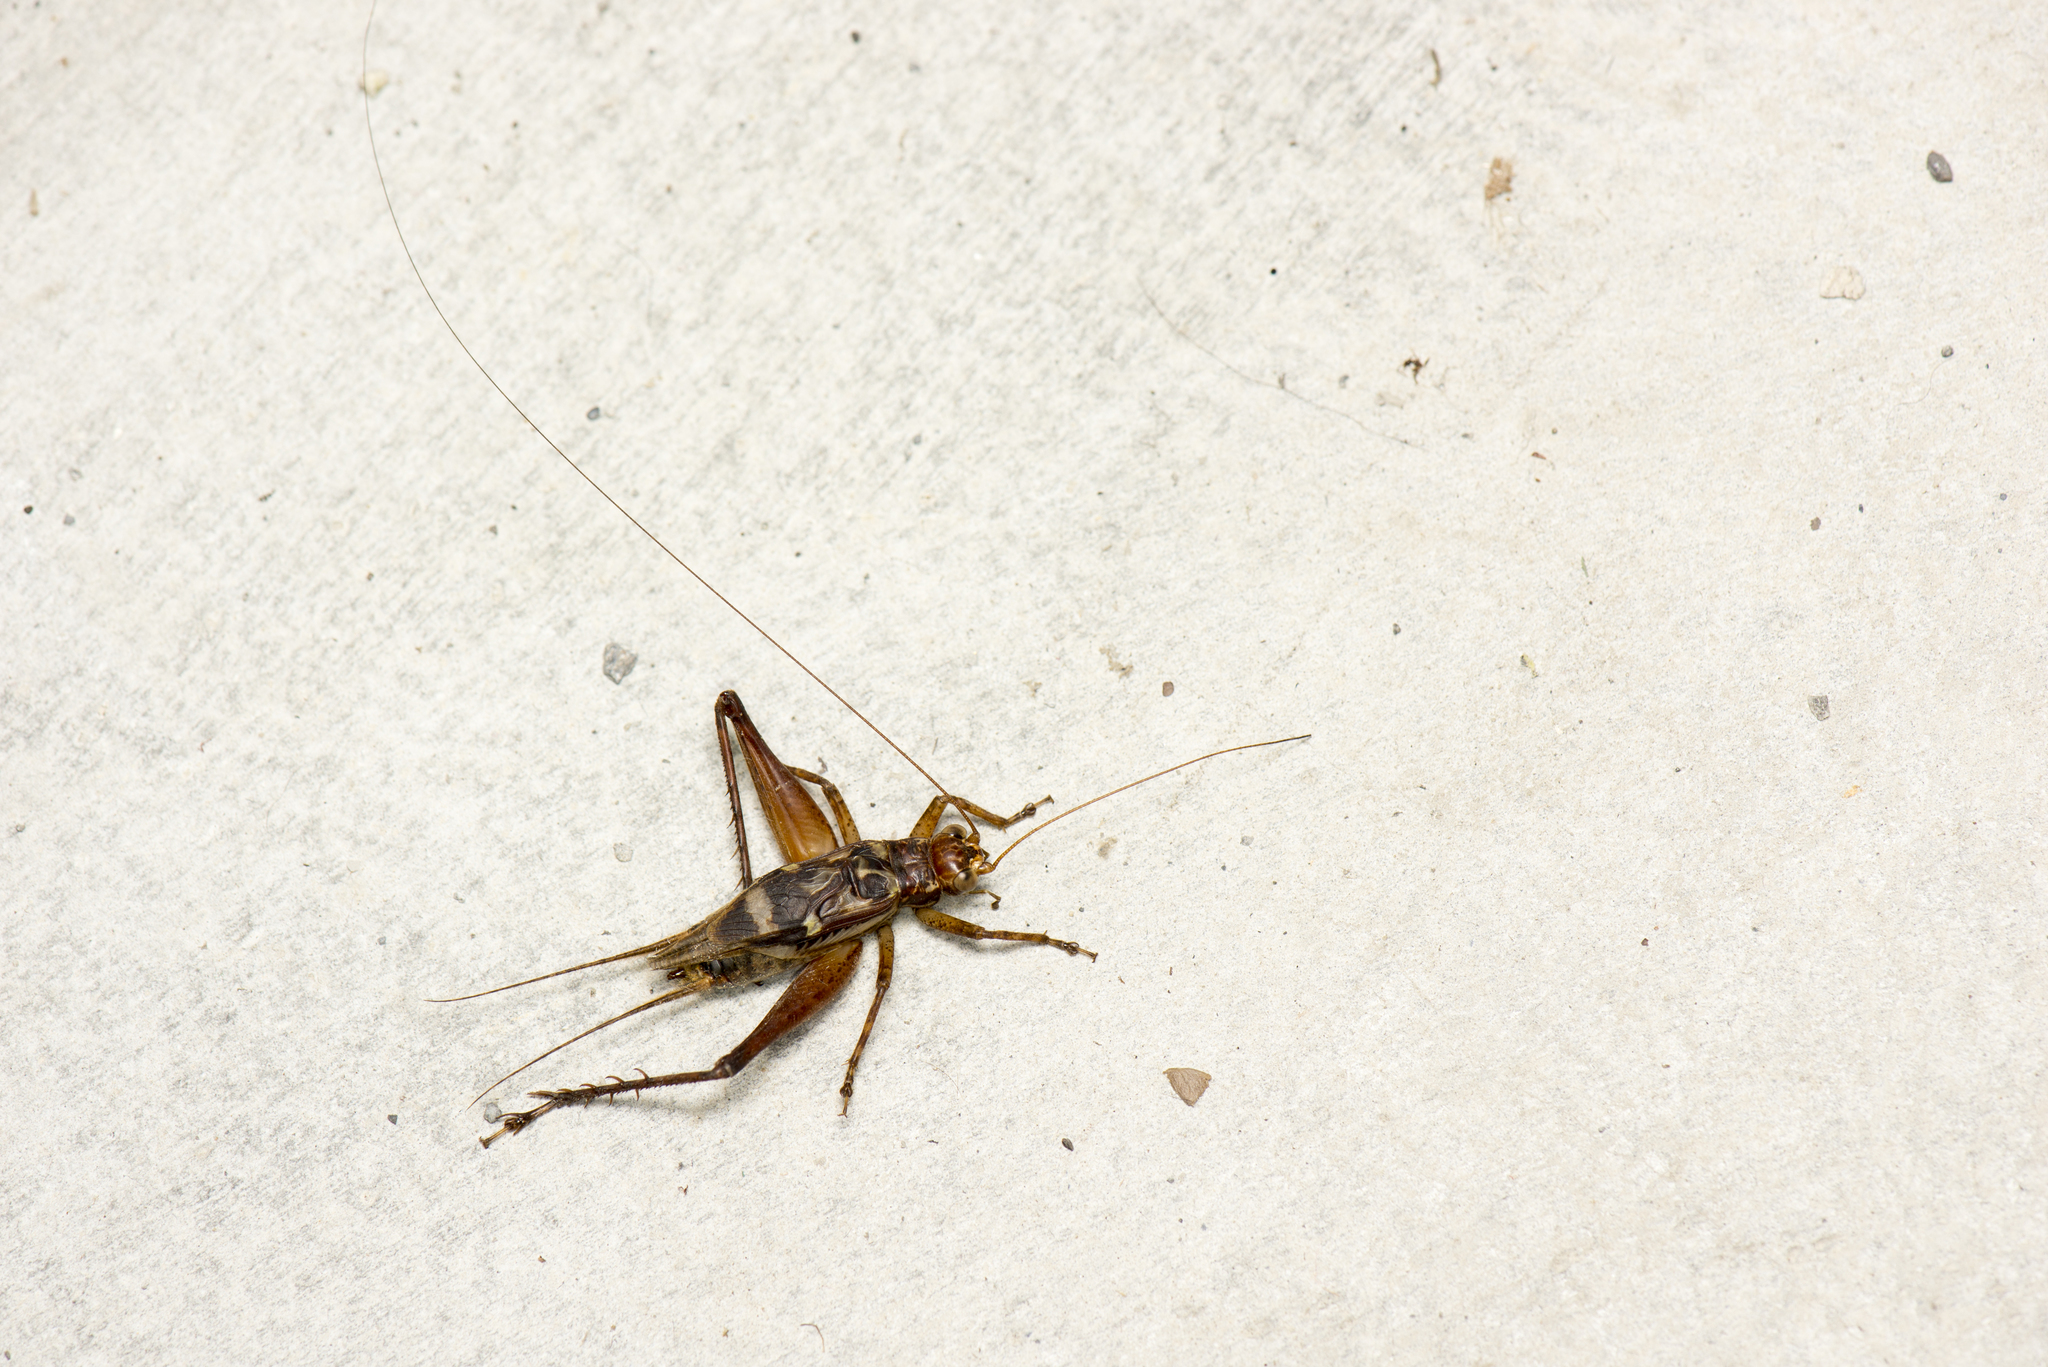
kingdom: Animalia
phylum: Arthropoda
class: Insecta
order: Orthoptera
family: Gryllidae
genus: Cardiodactylus
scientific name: Cardiodactylus guttulus
